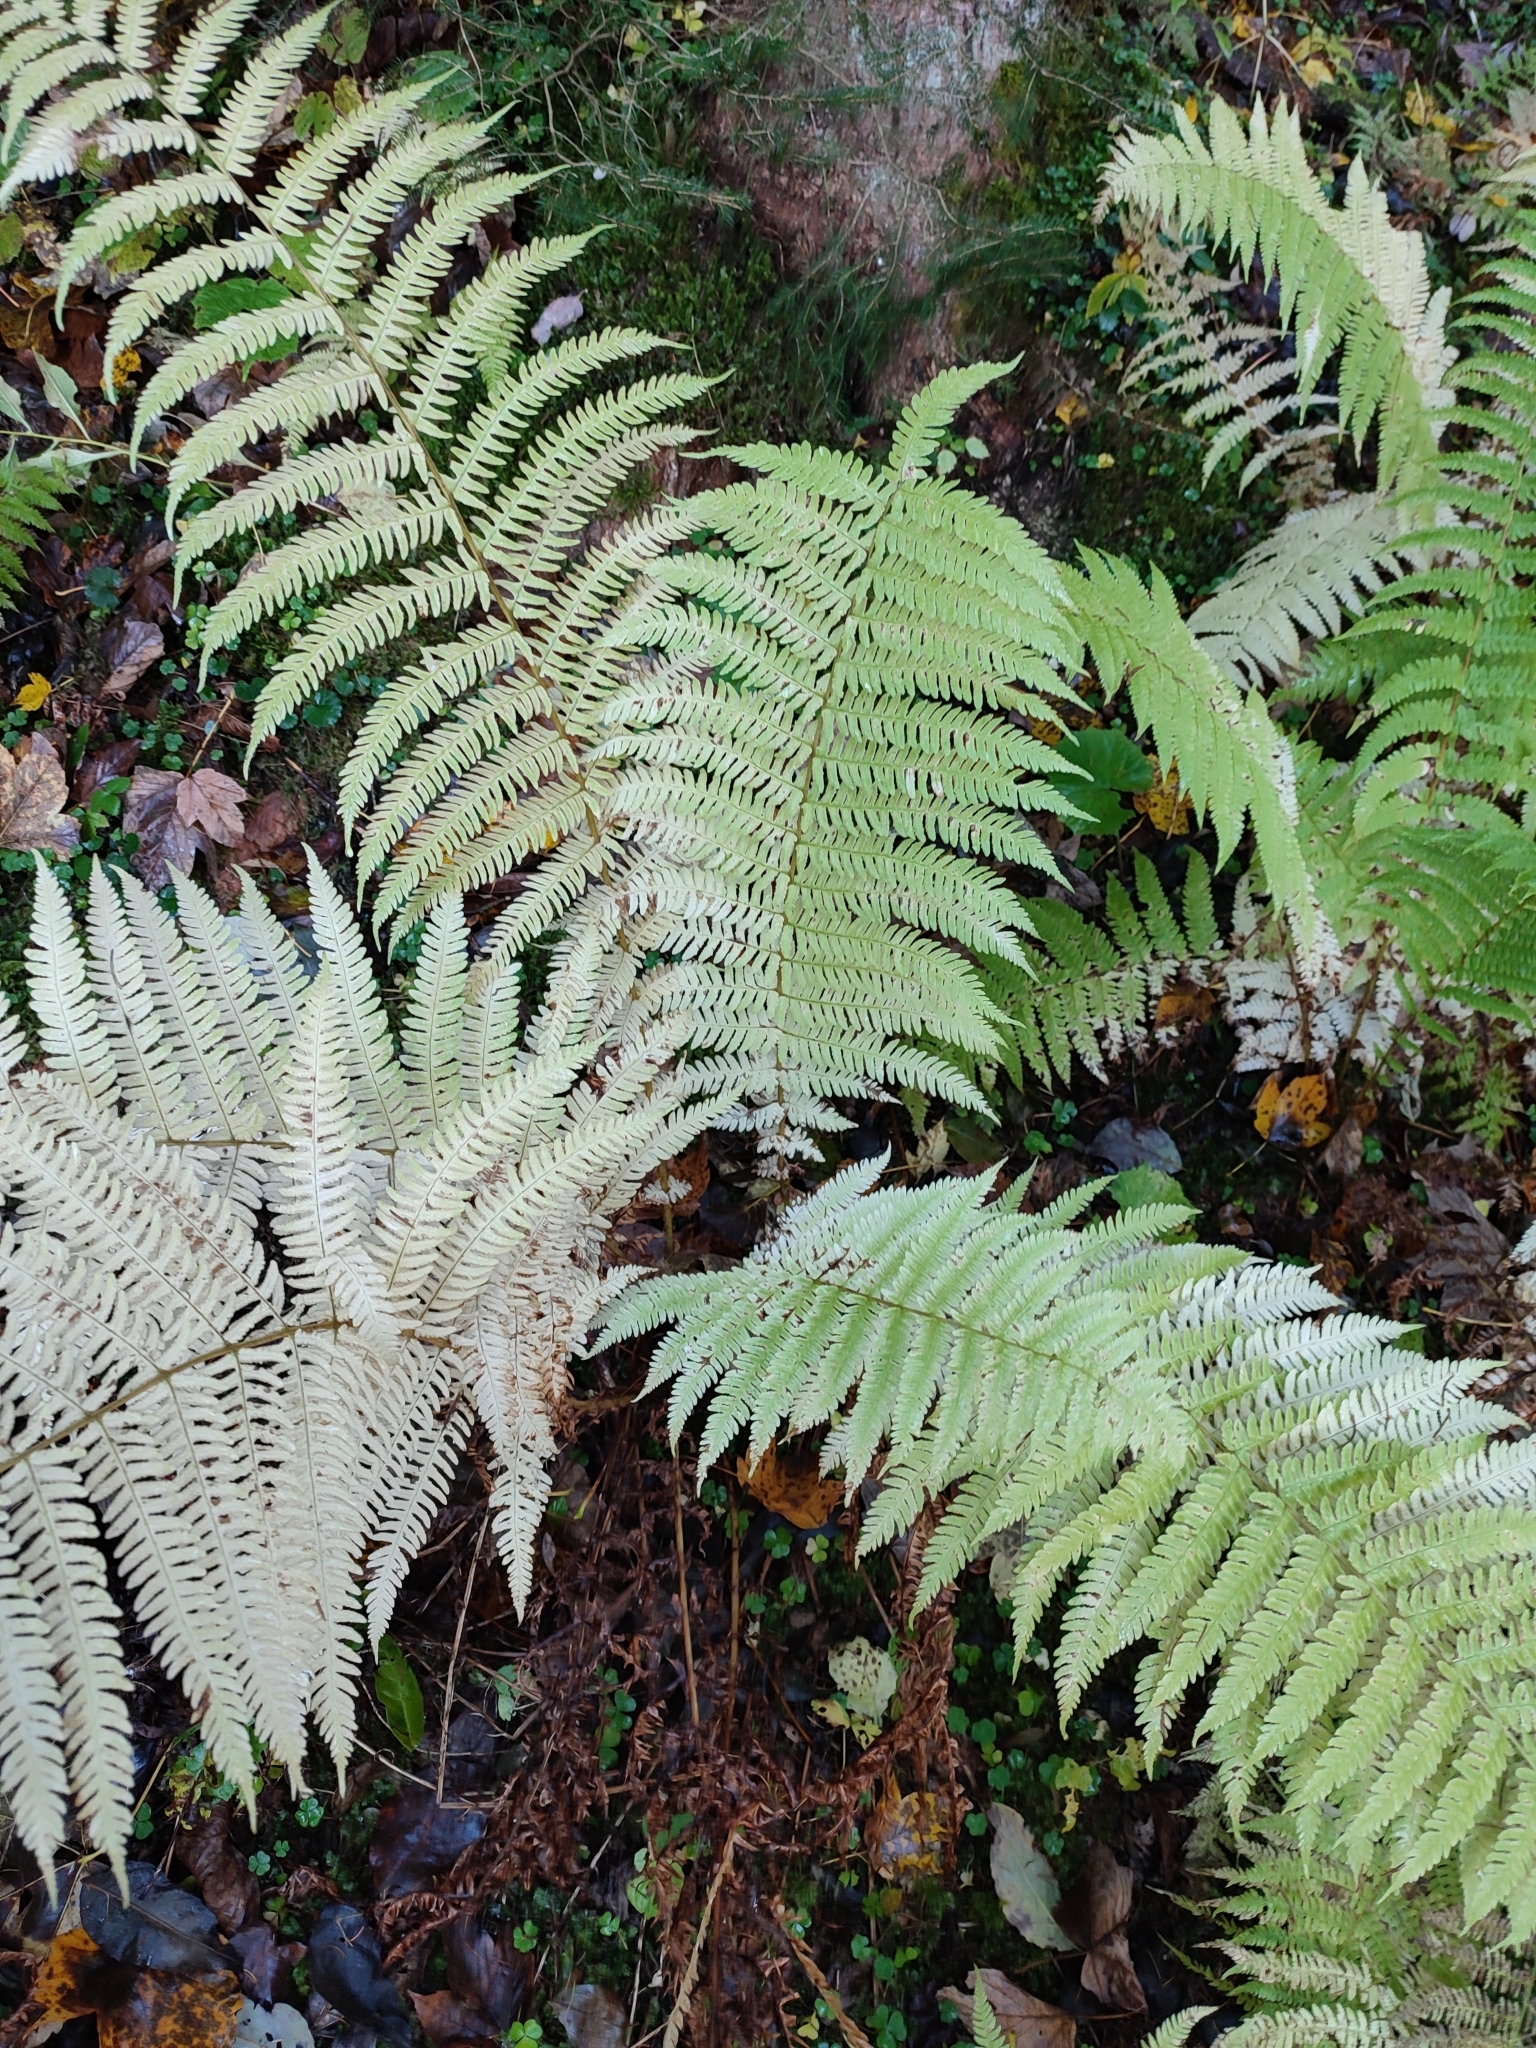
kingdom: Plantae
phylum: Tracheophyta
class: Polypodiopsida
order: Polypodiales
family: Thelypteridaceae
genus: Oreopteris
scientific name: Oreopteris limbosperma
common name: Lemon-scented fern
